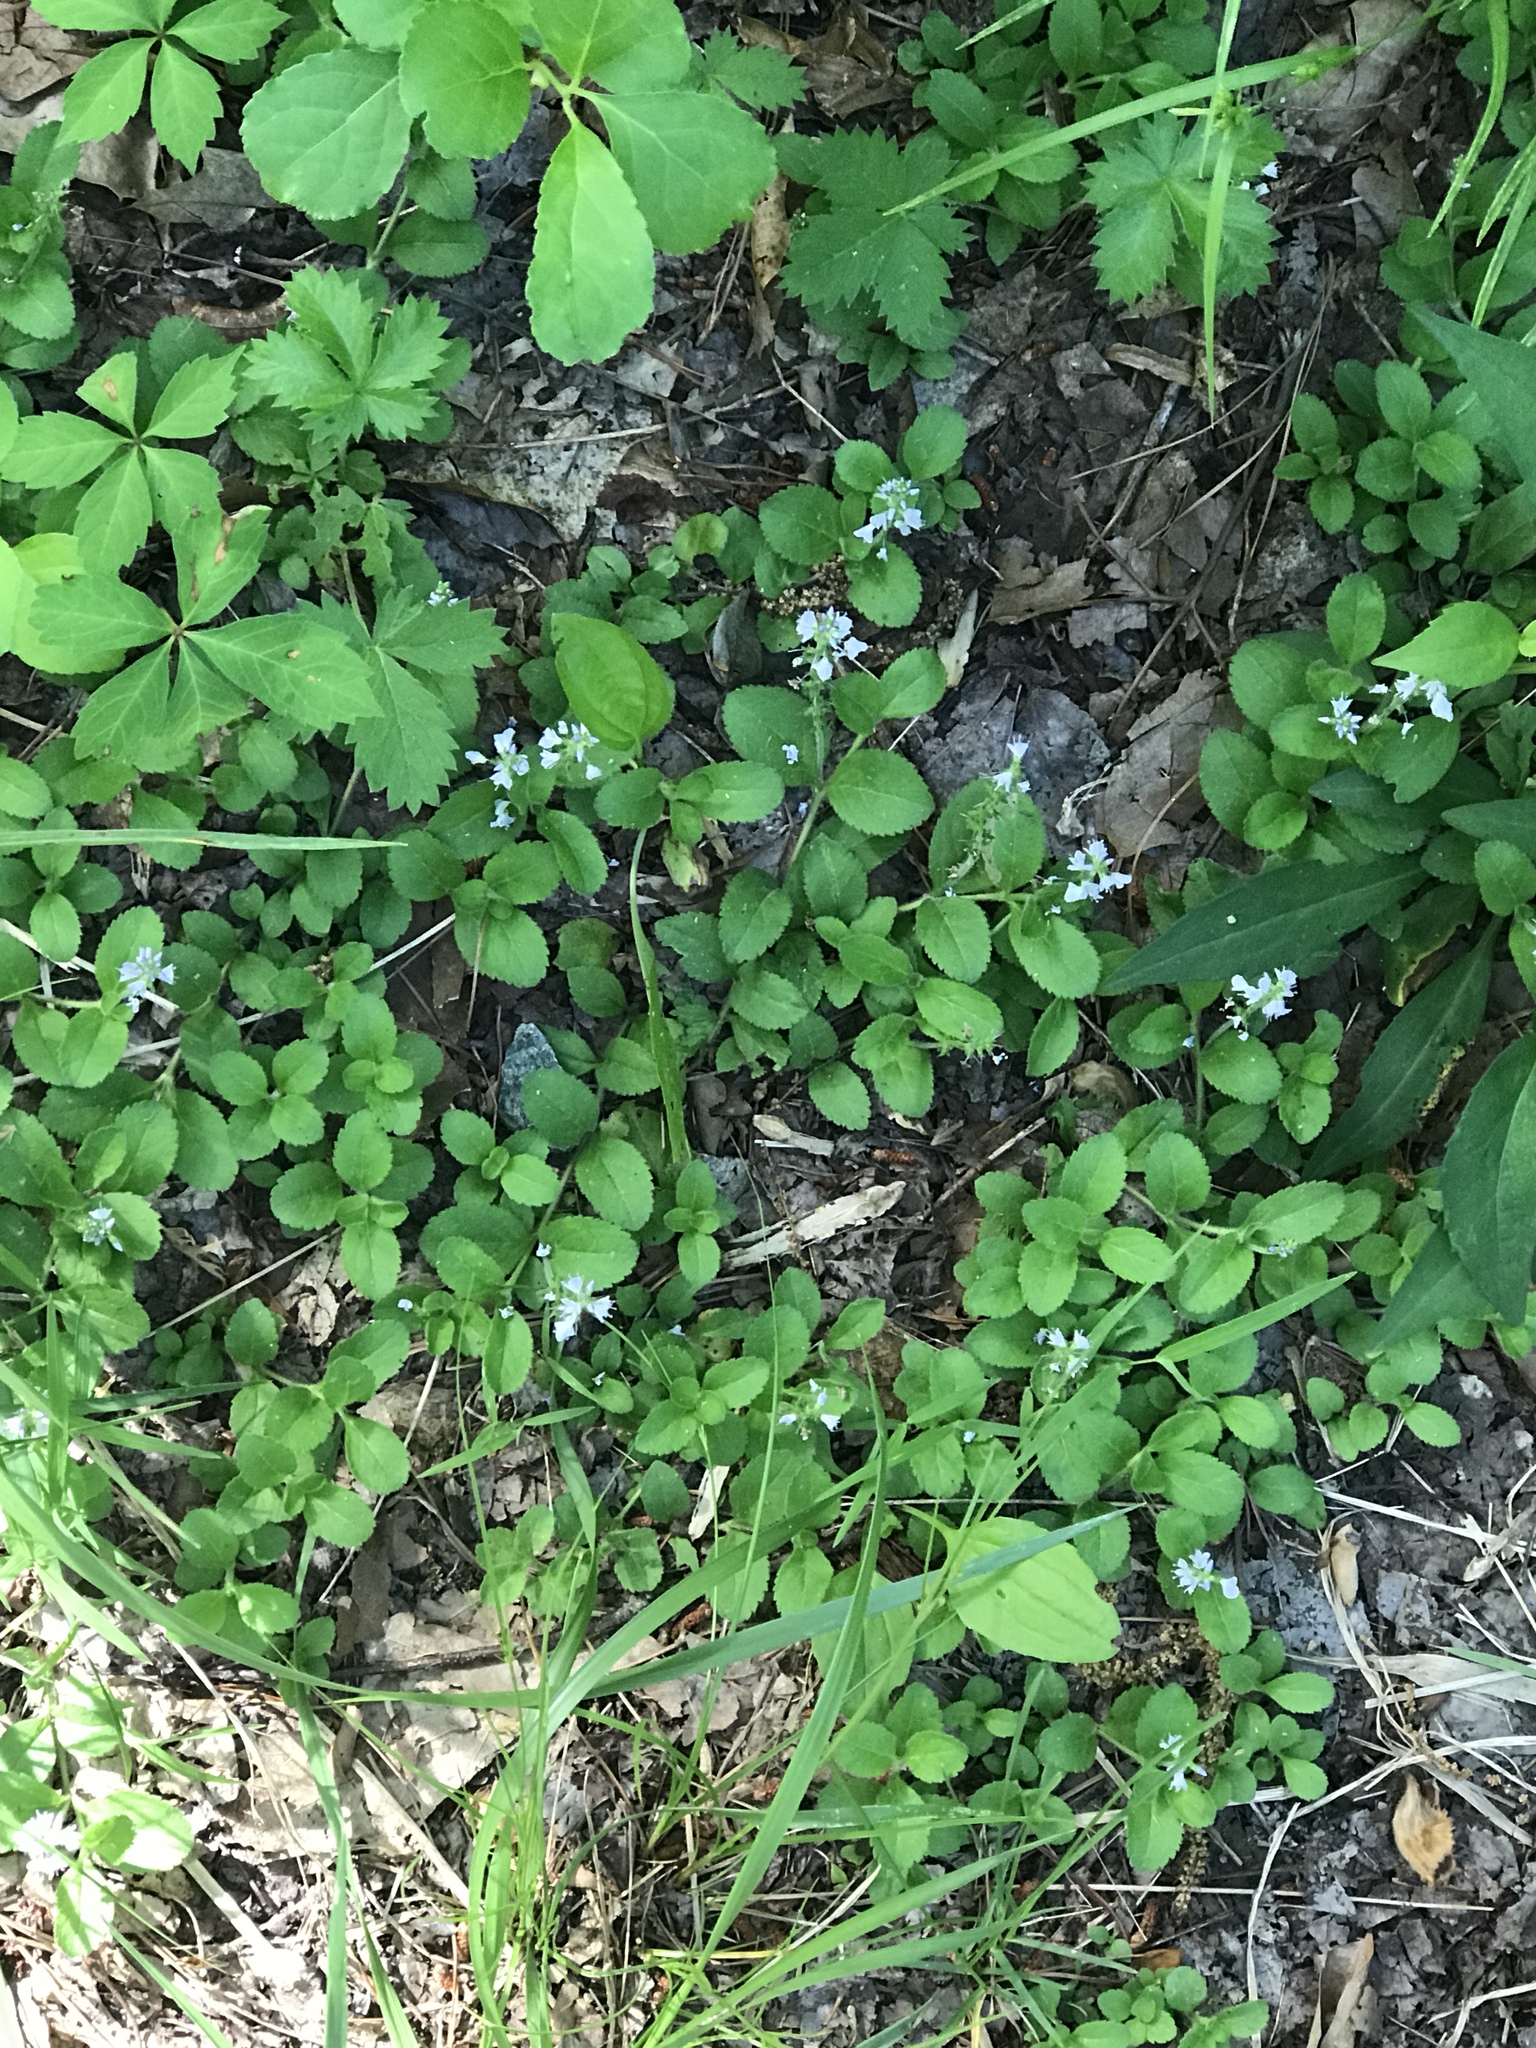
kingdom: Plantae
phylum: Tracheophyta
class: Magnoliopsida
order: Lamiales
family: Plantaginaceae
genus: Veronica
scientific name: Veronica officinalis
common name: Common speedwell
